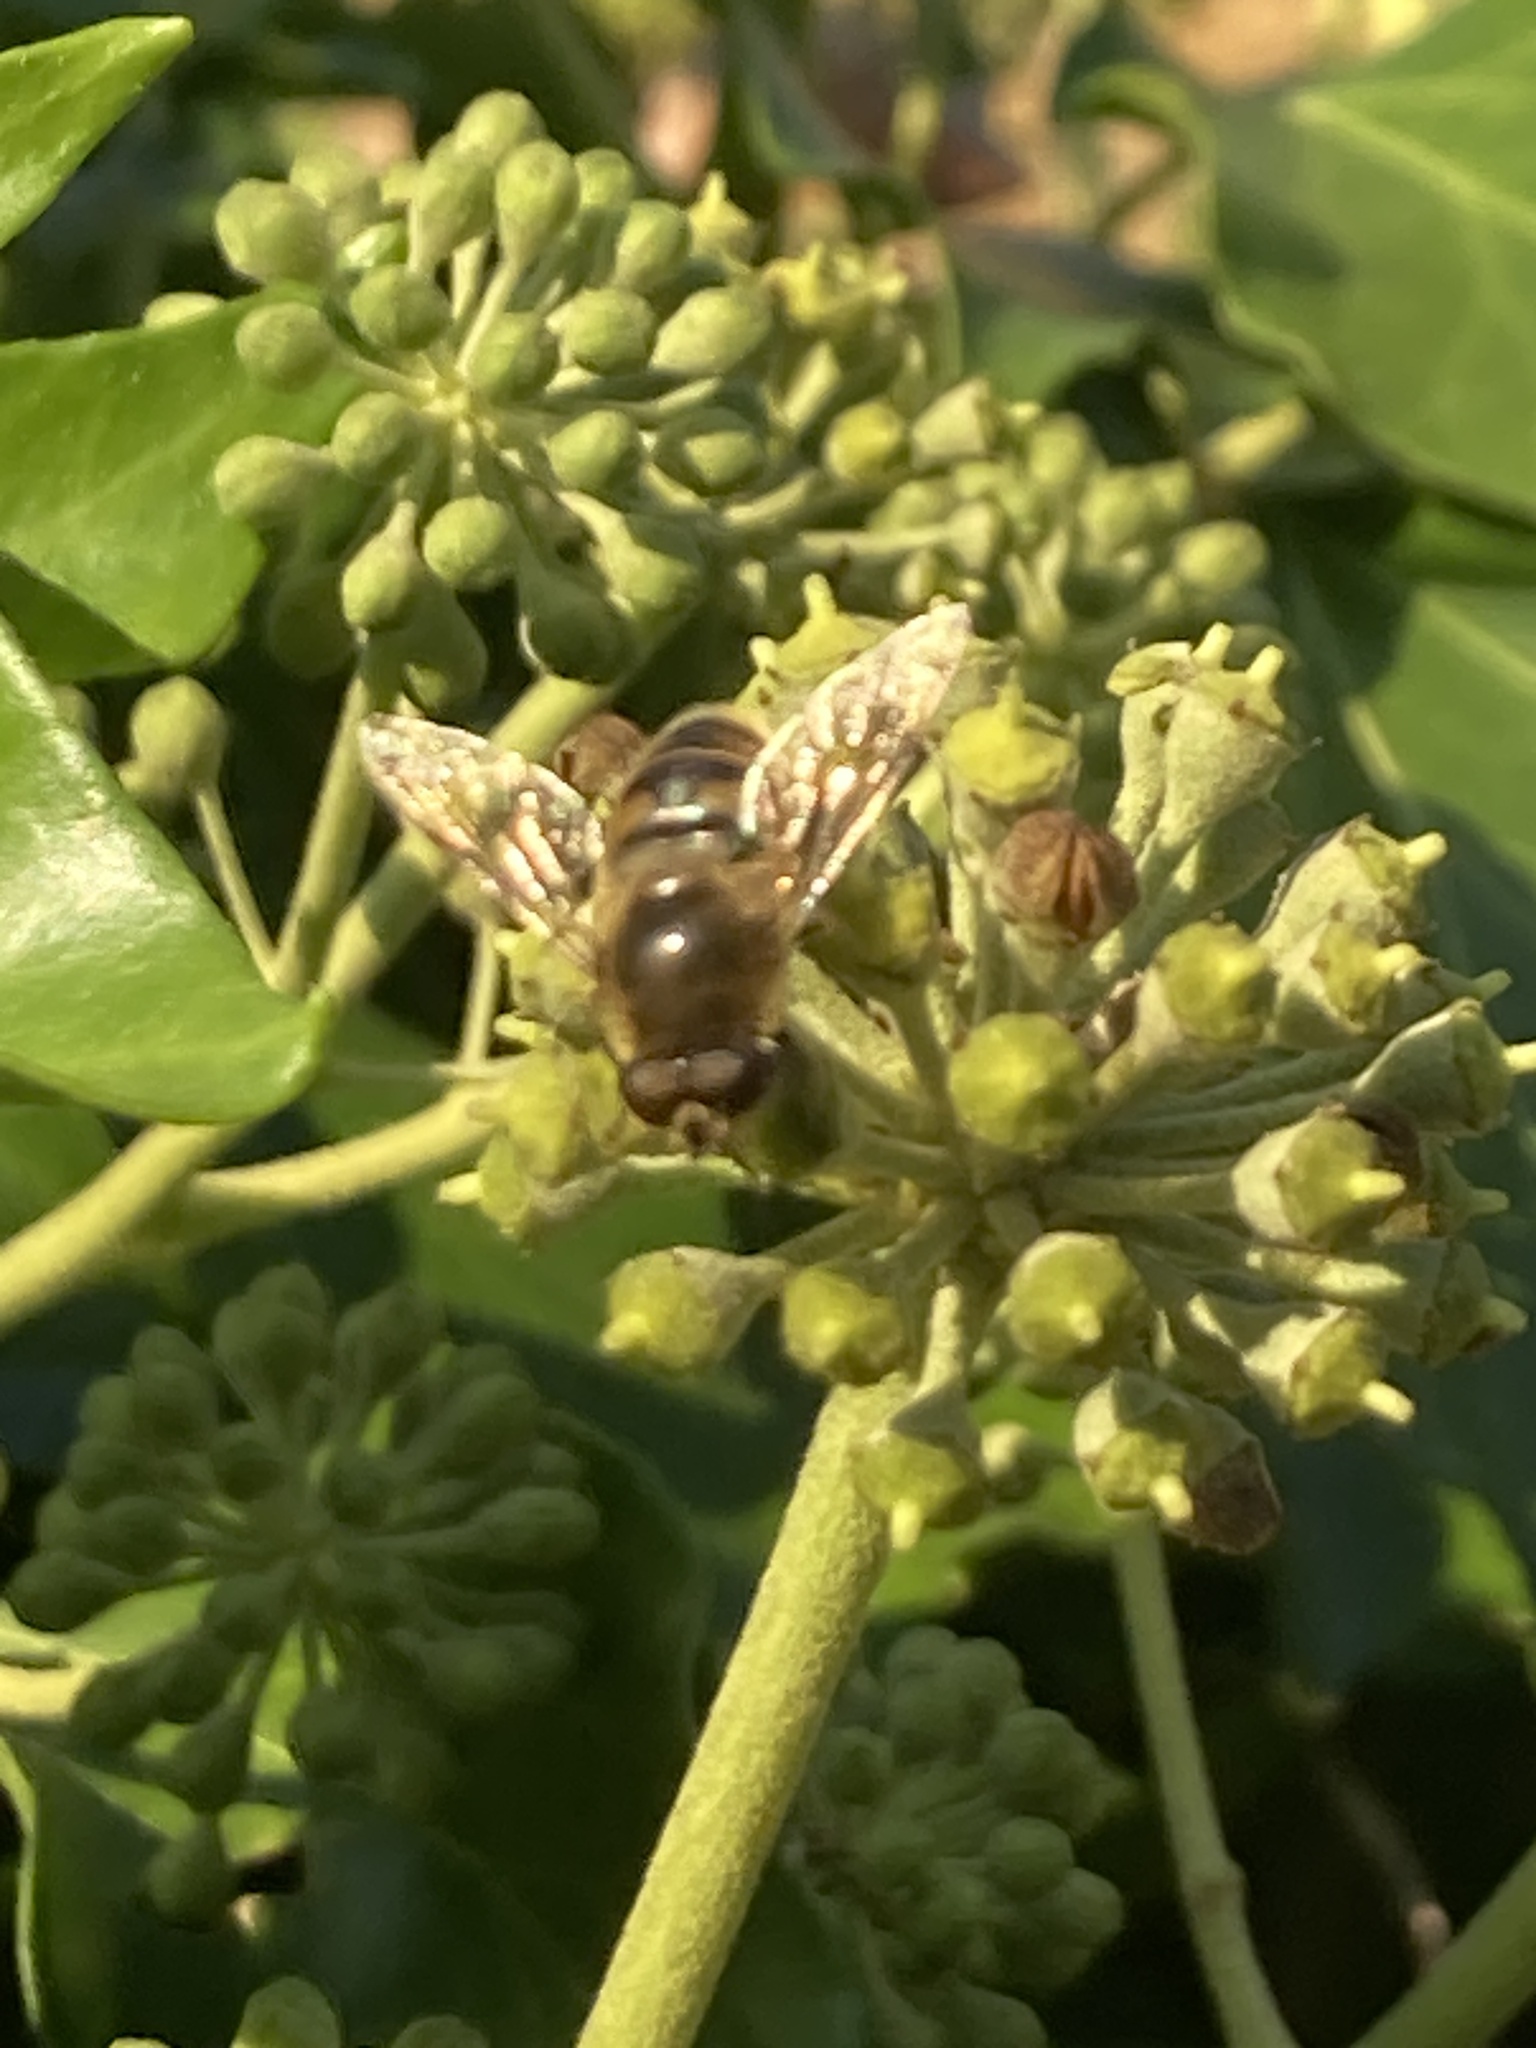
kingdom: Animalia
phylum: Arthropoda
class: Insecta
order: Diptera
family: Syrphidae
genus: Eristalis
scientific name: Eristalis tenax
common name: Drone fly
